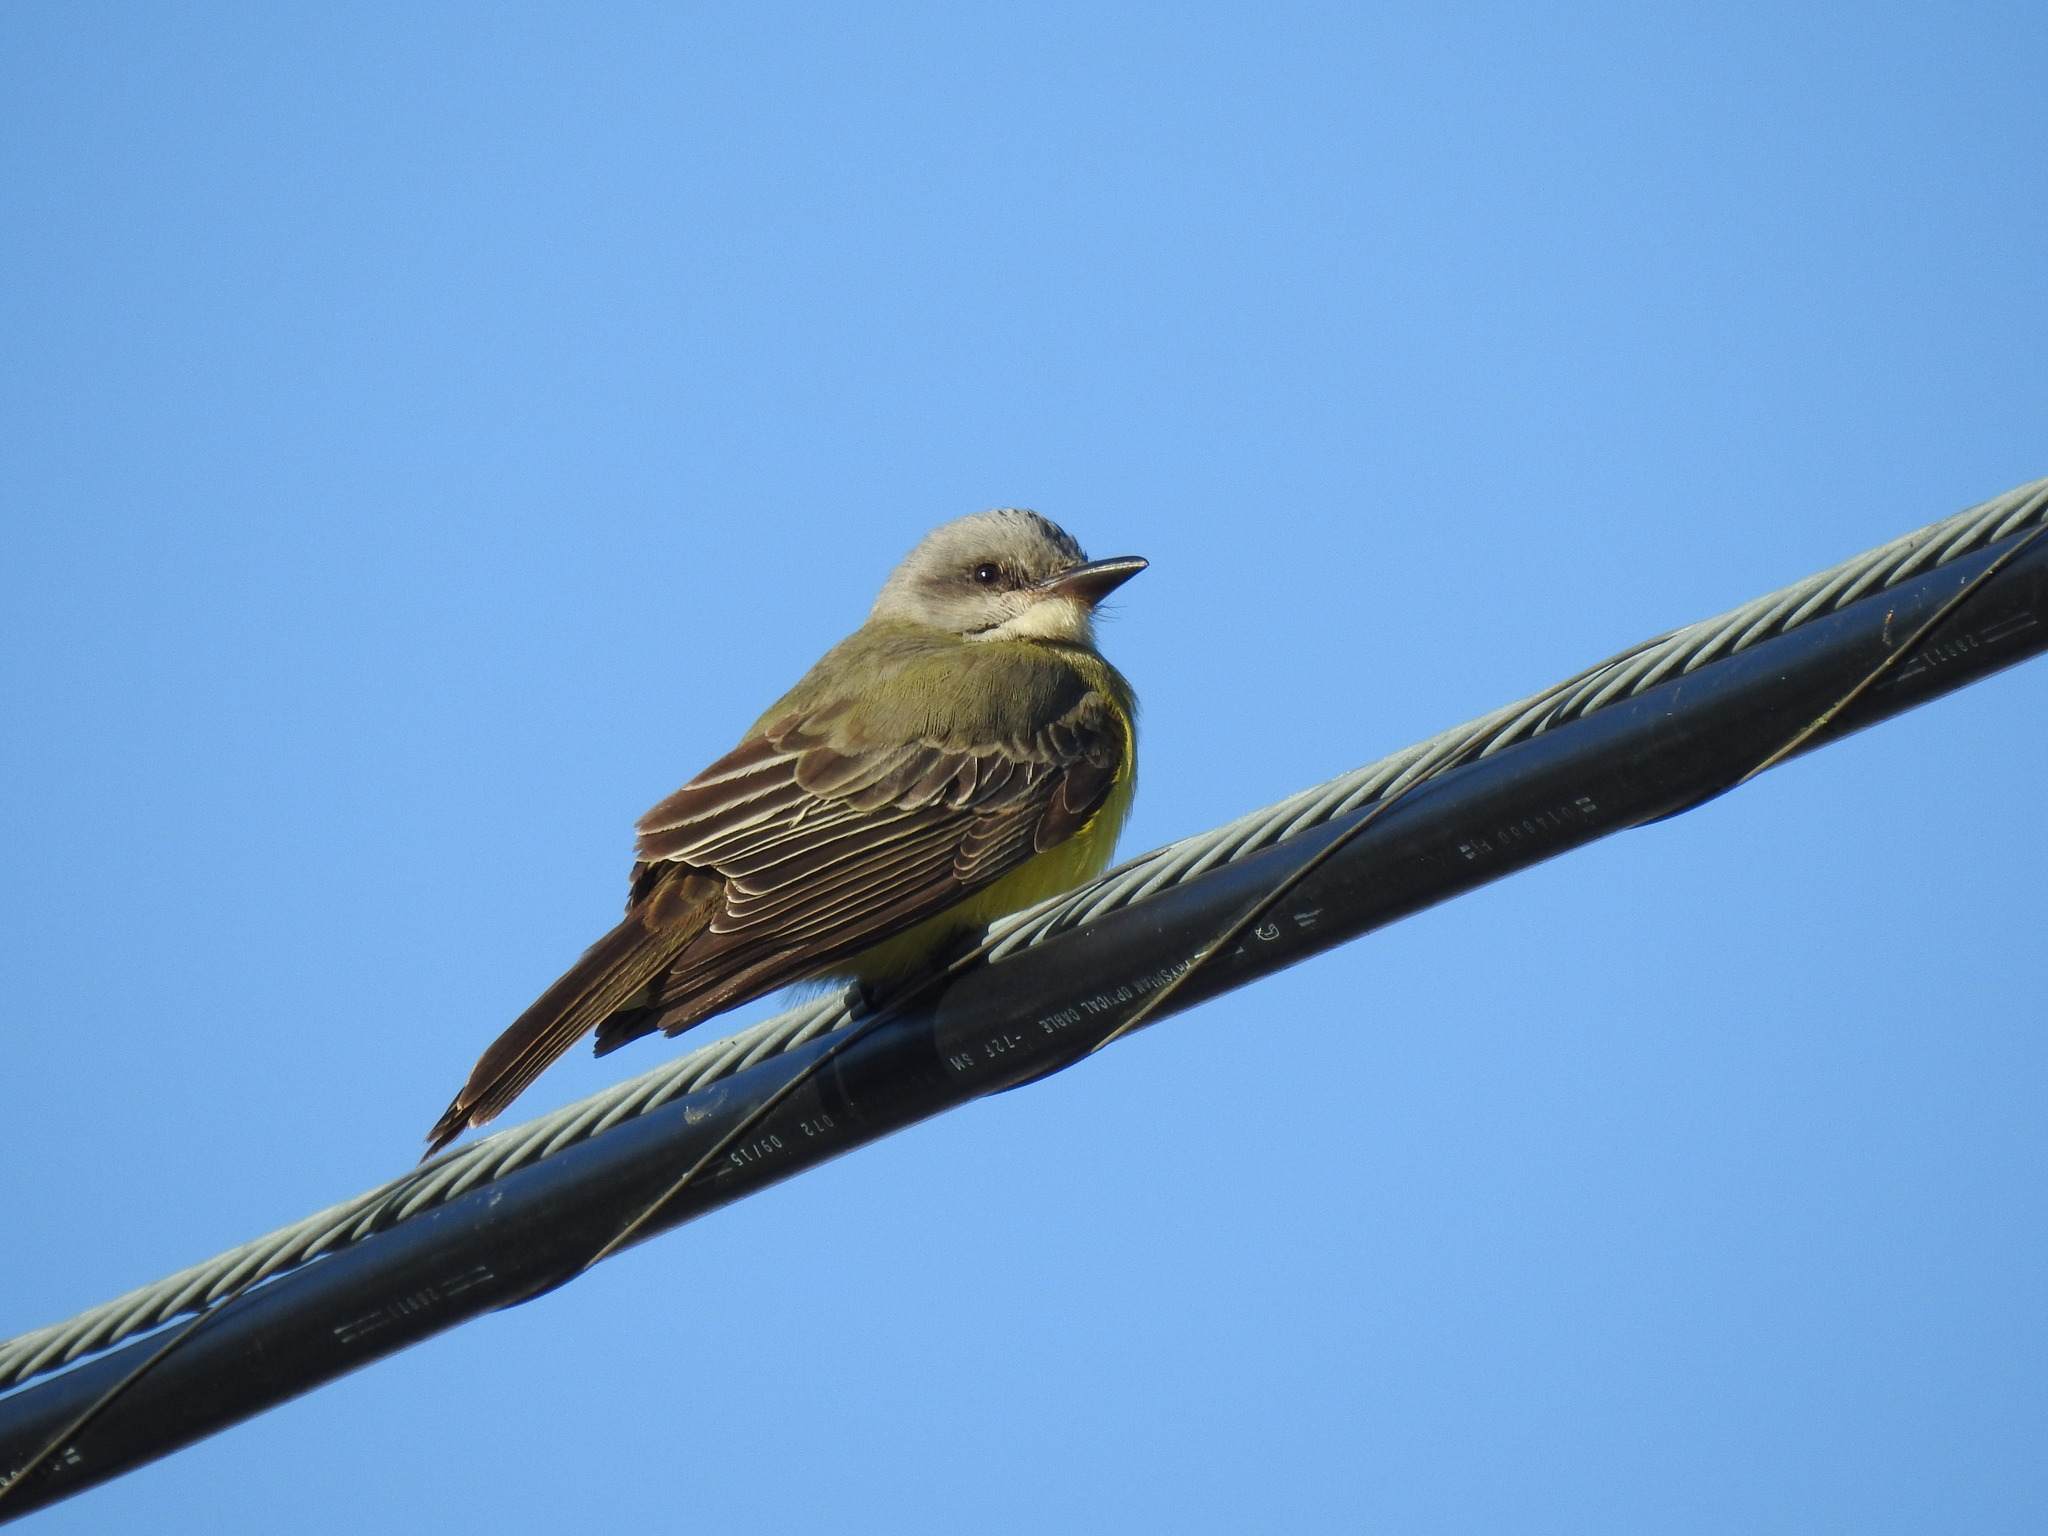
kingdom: Animalia
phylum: Chordata
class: Aves
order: Passeriformes
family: Tyrannidae
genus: Tyrannus
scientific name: Tyrannus melancholicus
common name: Tropical kingbird
